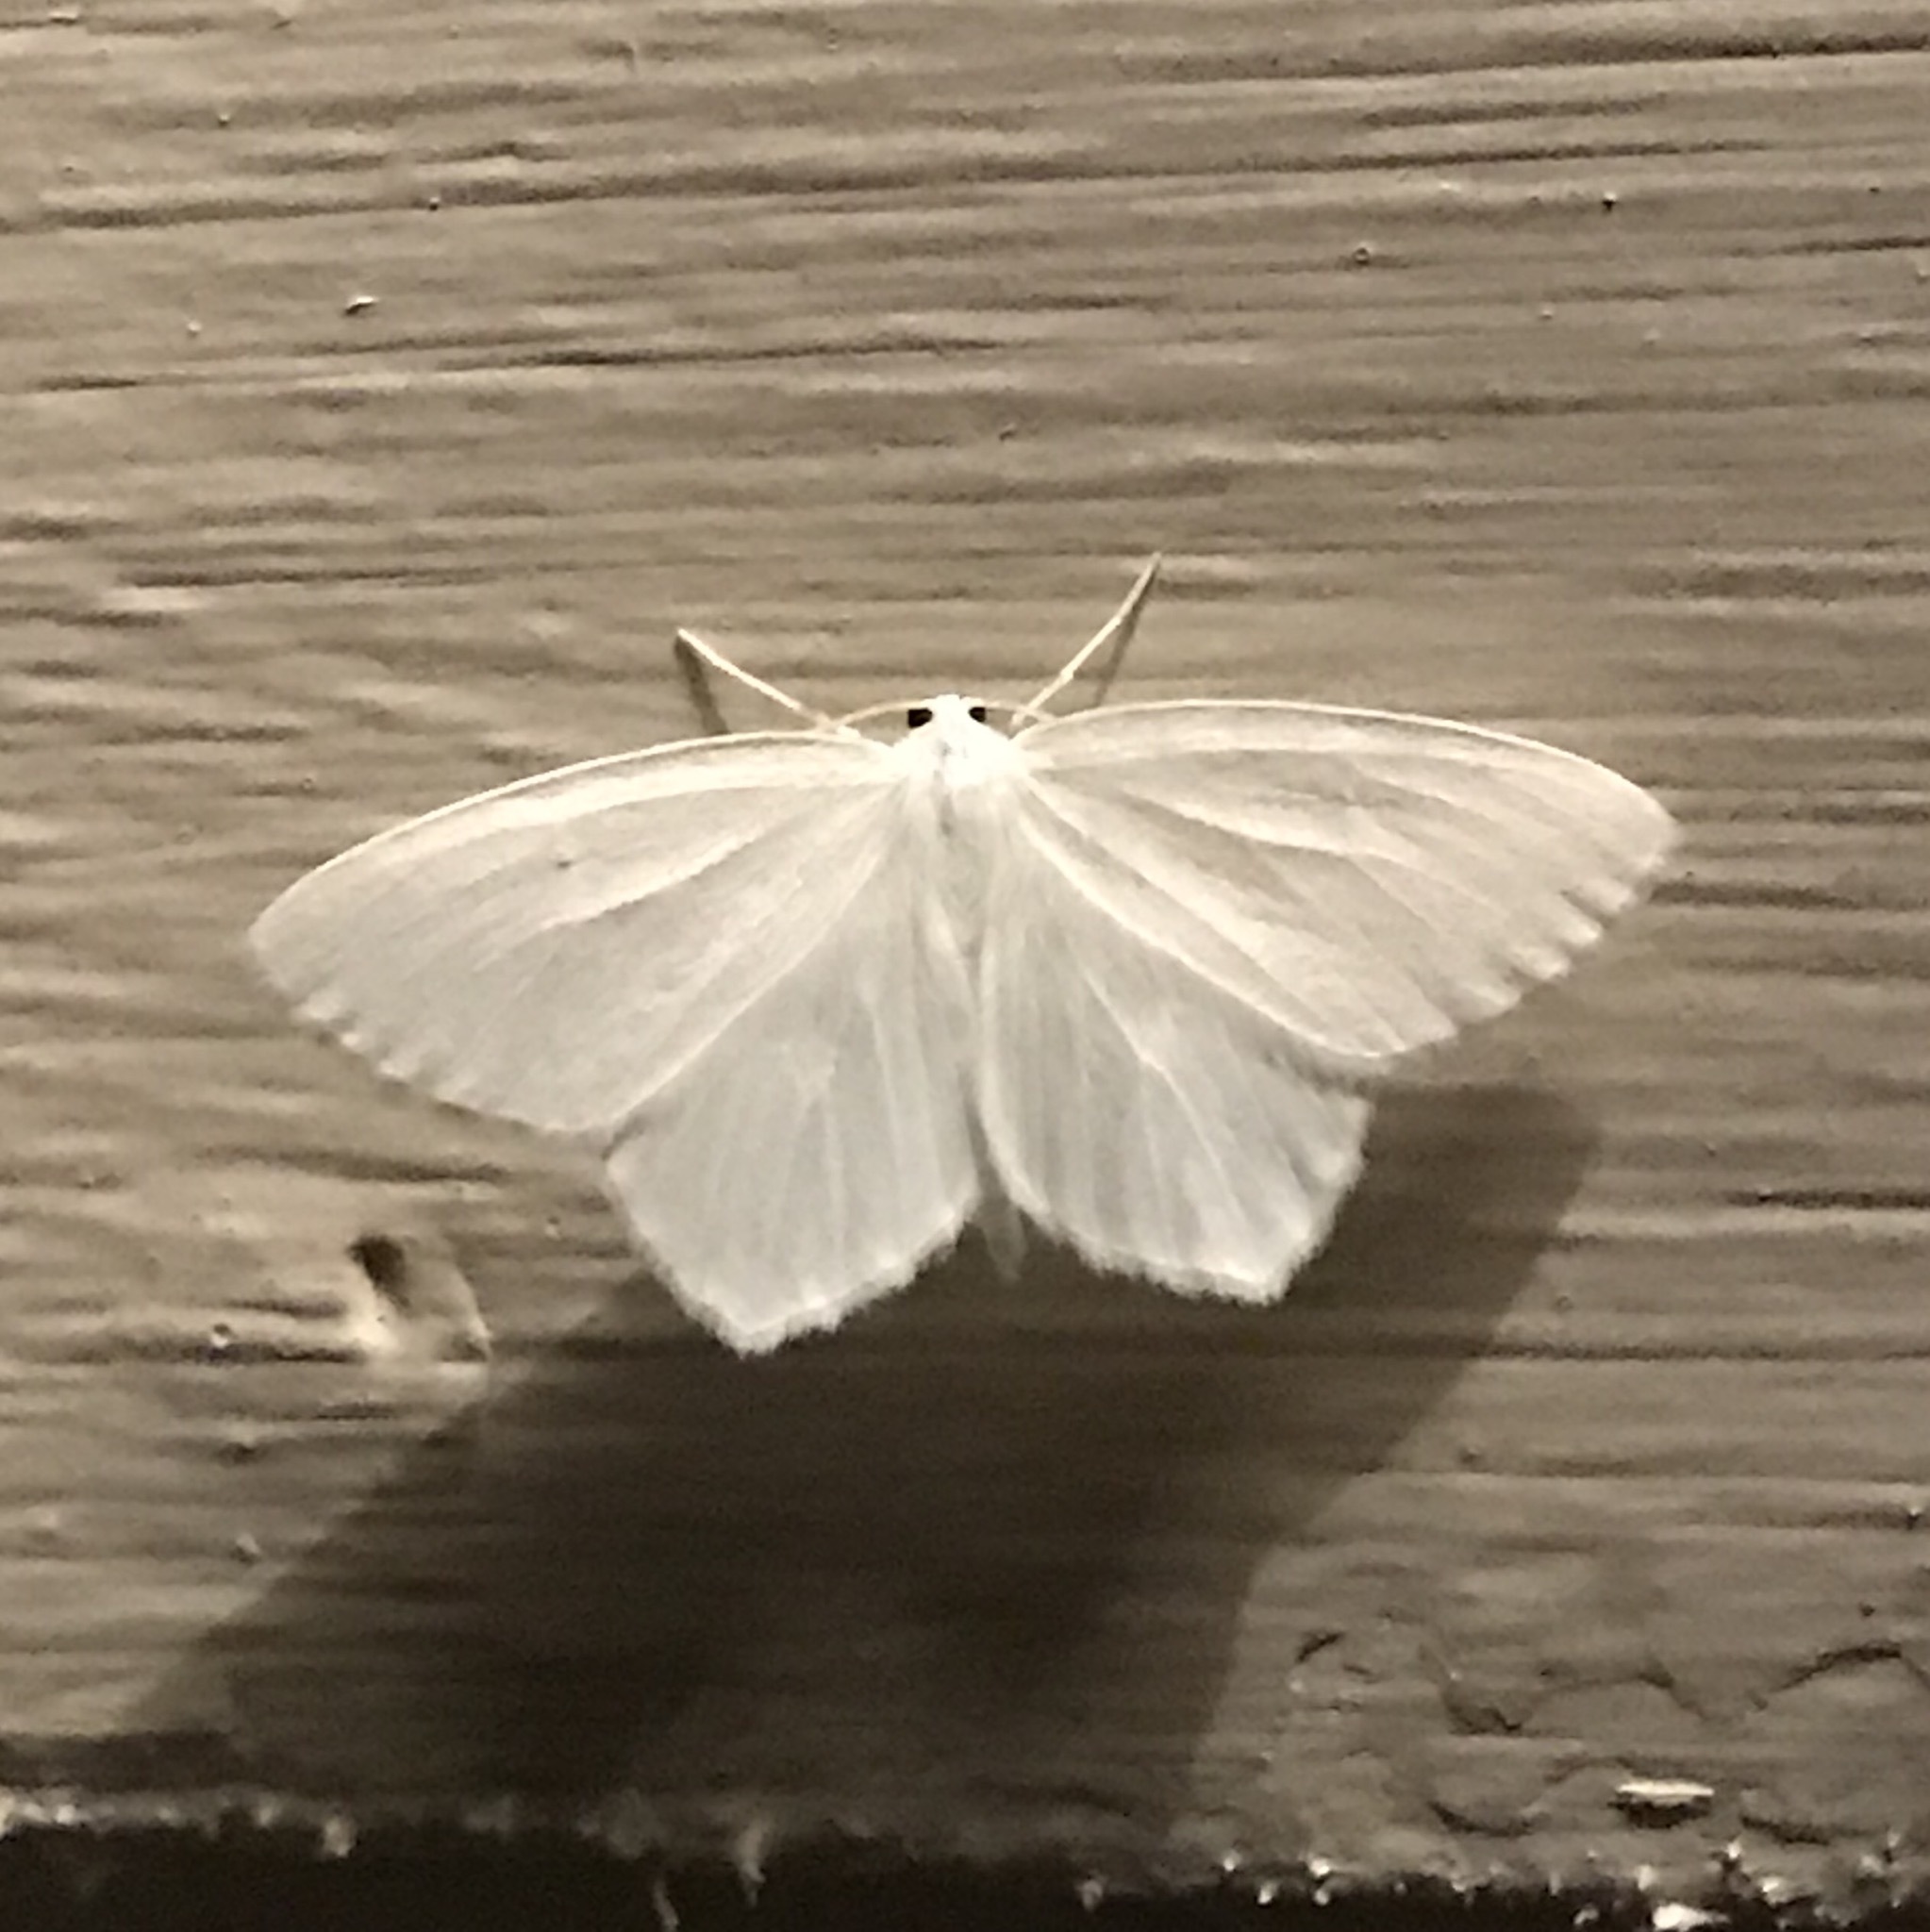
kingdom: Animalia
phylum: Arthropoda
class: Insecta
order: Lepidoptera
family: Geometridae
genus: Eugonobapta
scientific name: Eugonobapta nivosaria
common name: Snowy geometer
